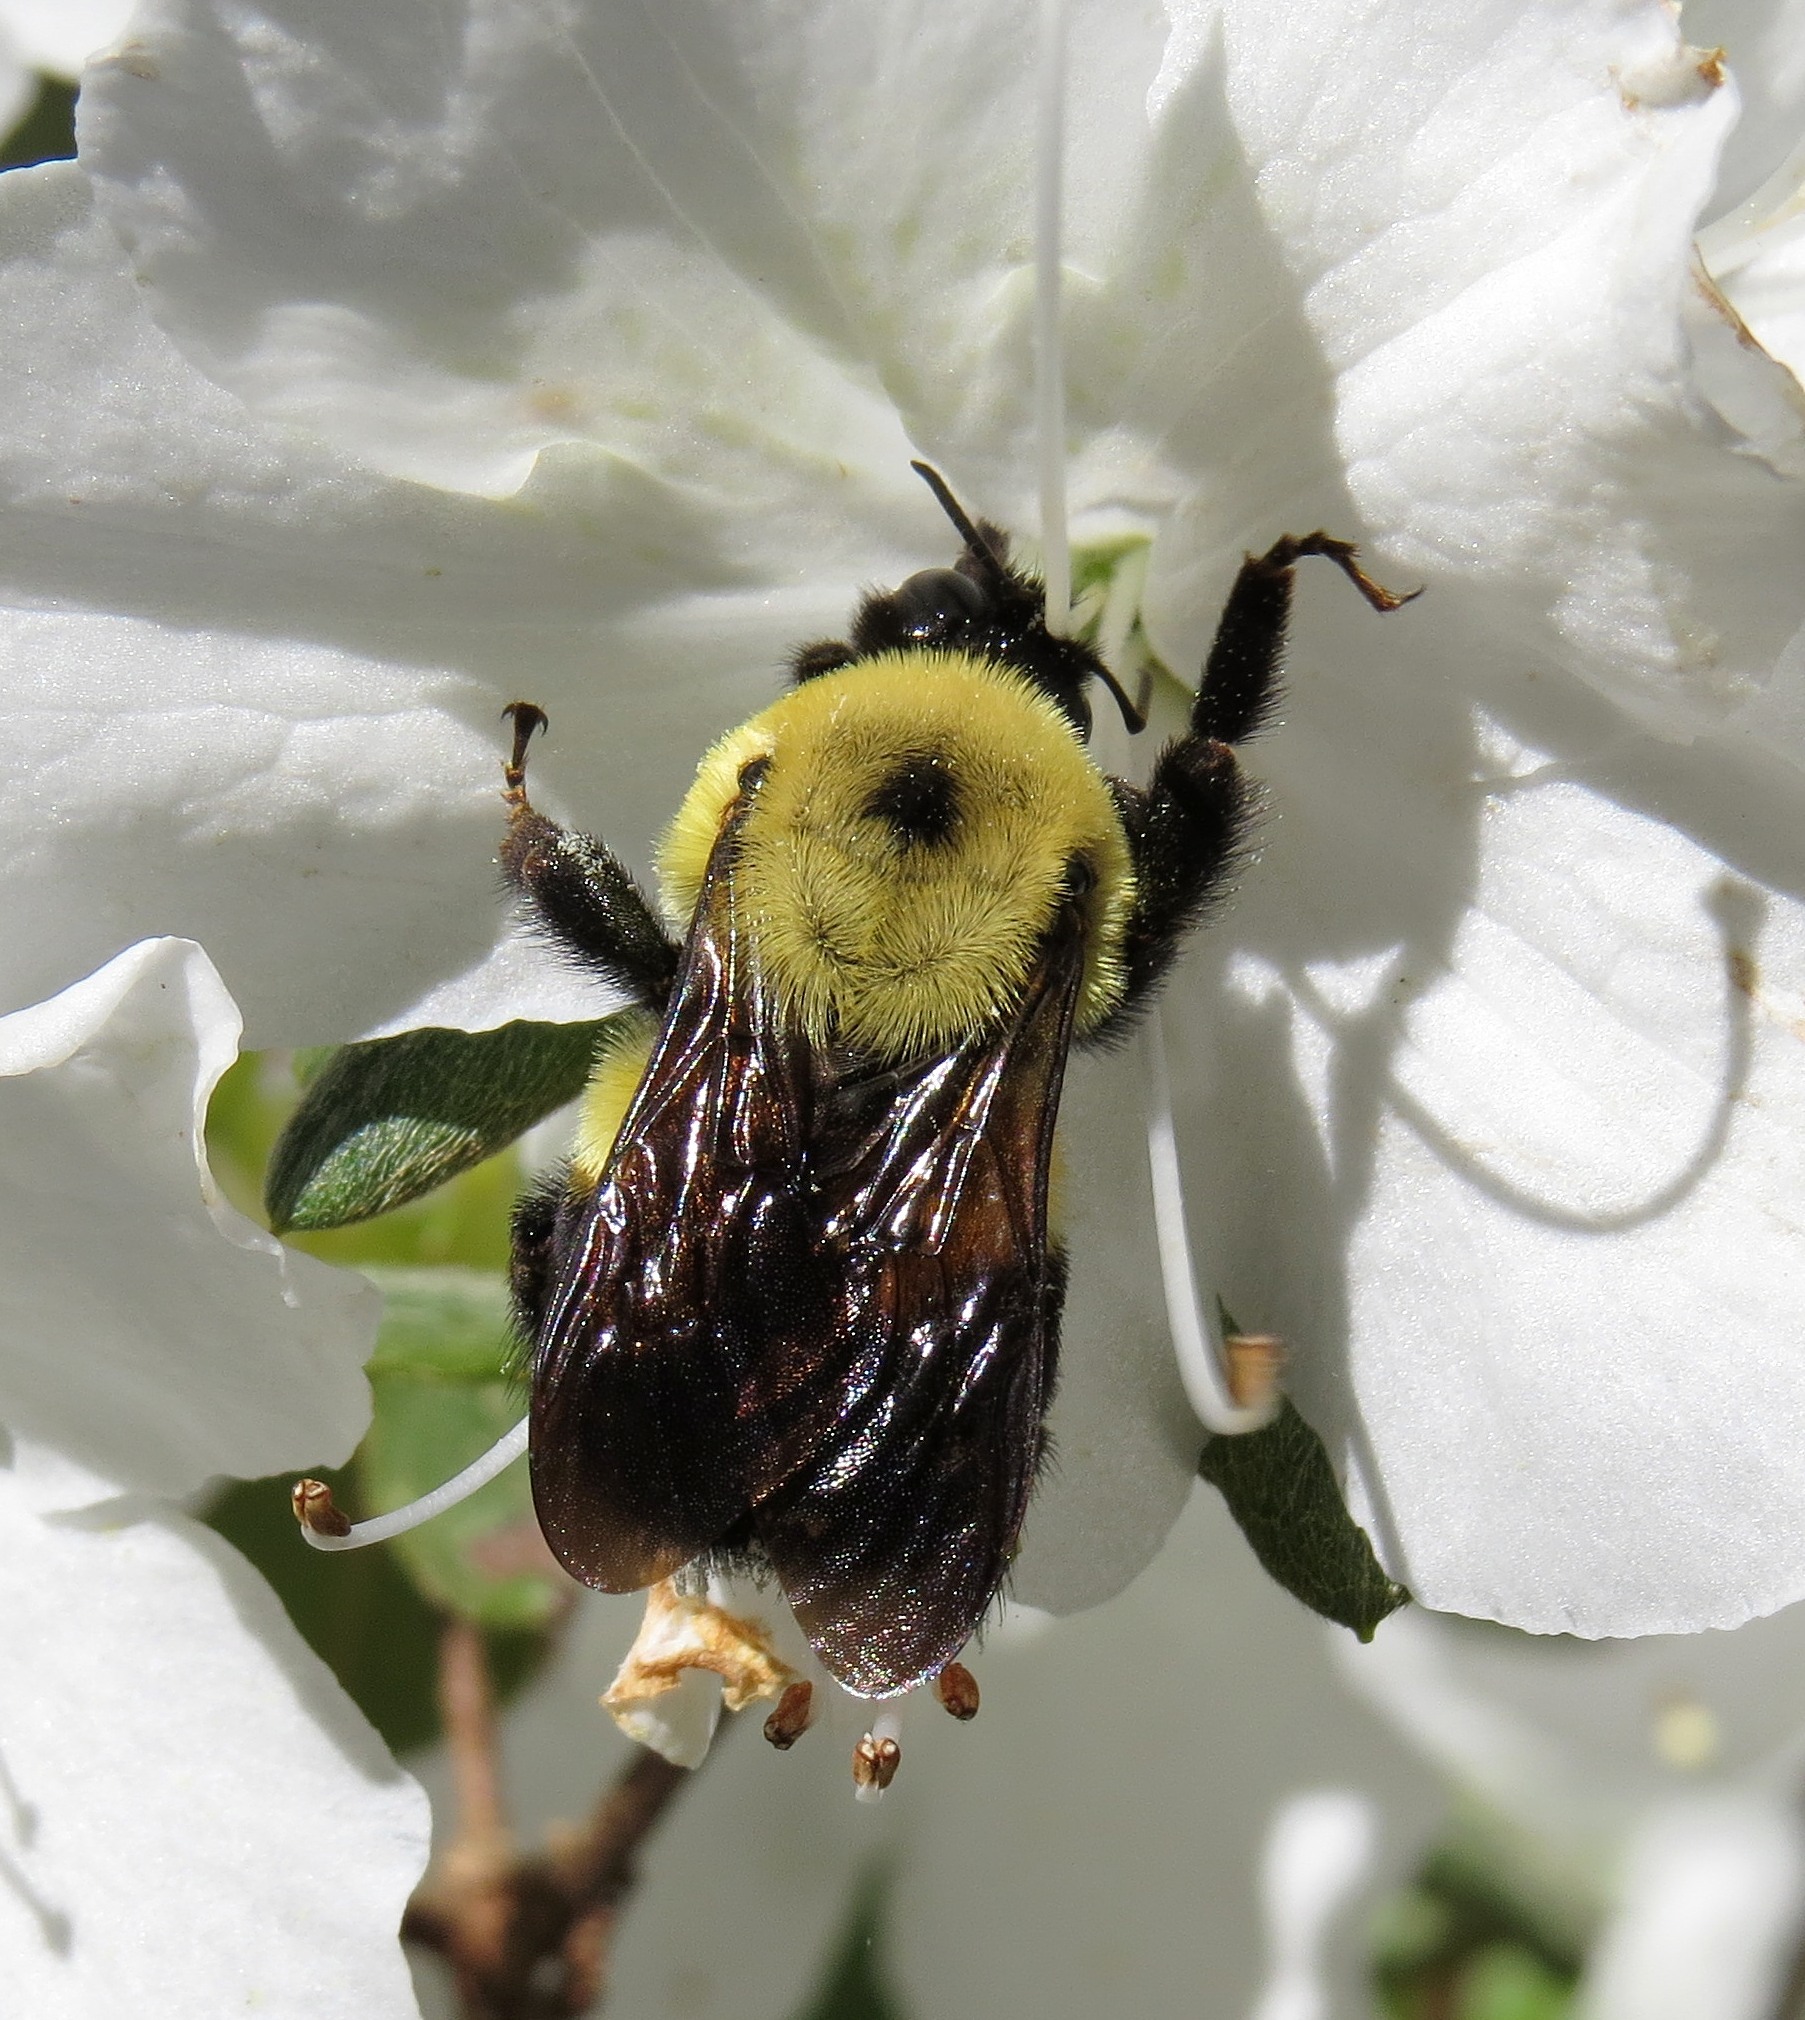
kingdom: Animalia
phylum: Arthropoda
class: Insecta
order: Hymenoptera
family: Apidae
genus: Bombus
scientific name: Bombus griseocollis
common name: Brown-belted bumble bee
